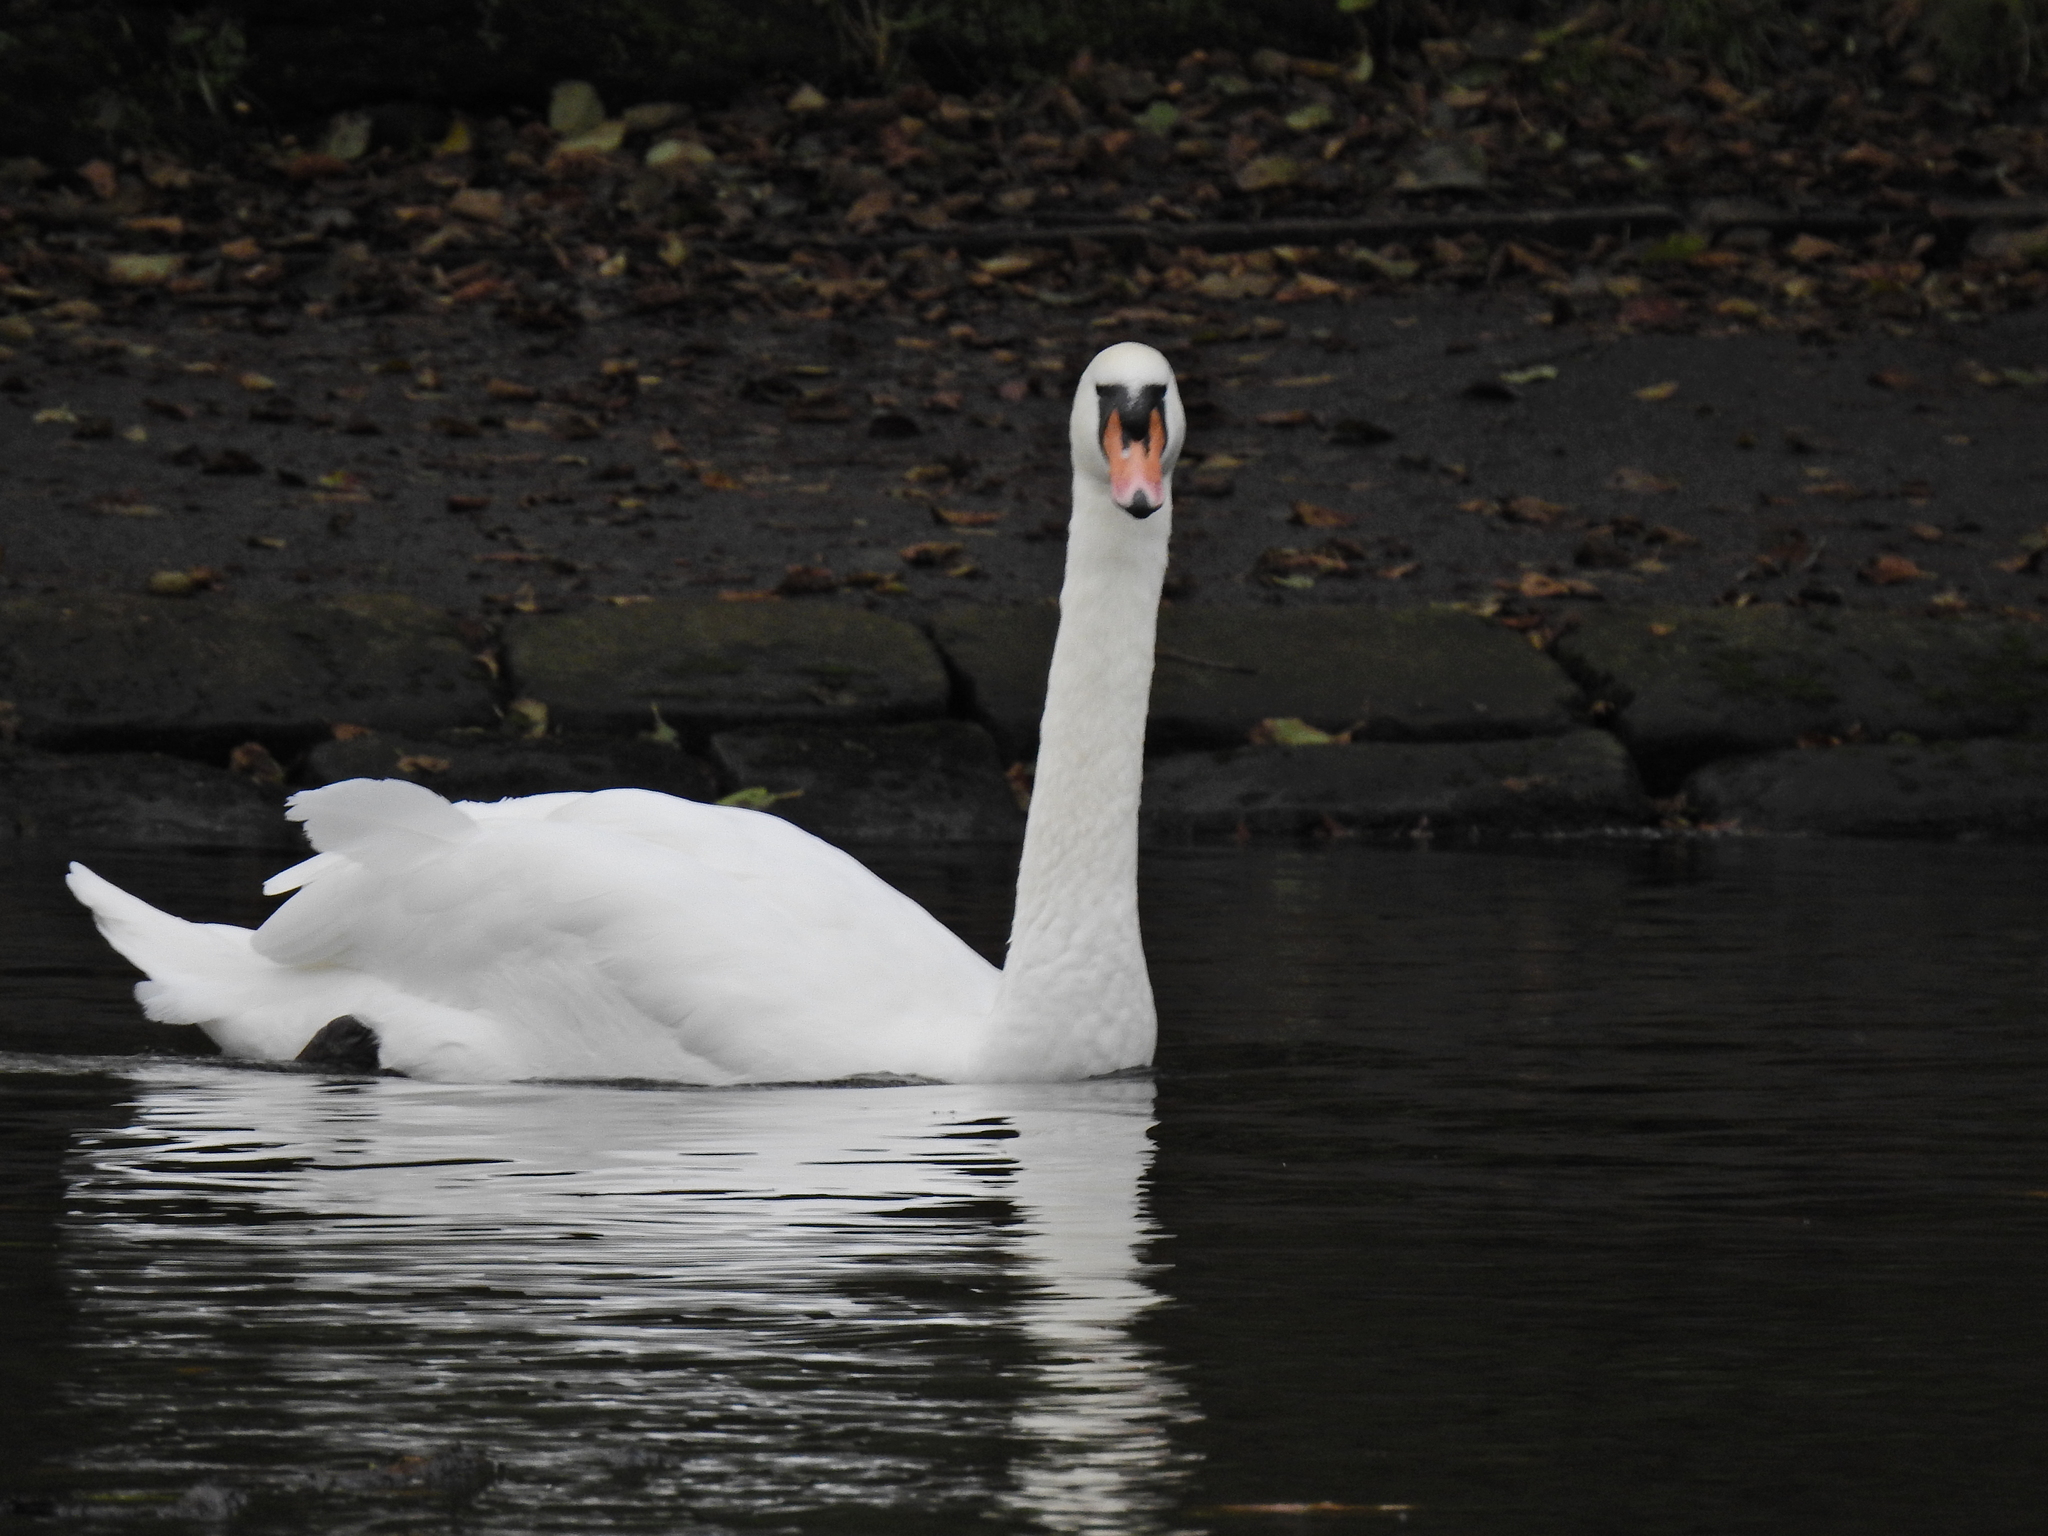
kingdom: Animalia
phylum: Chordata
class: Aves
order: Anseriformes
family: Anatidae
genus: Cygnus
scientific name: Cygnus olor
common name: Mute swan
